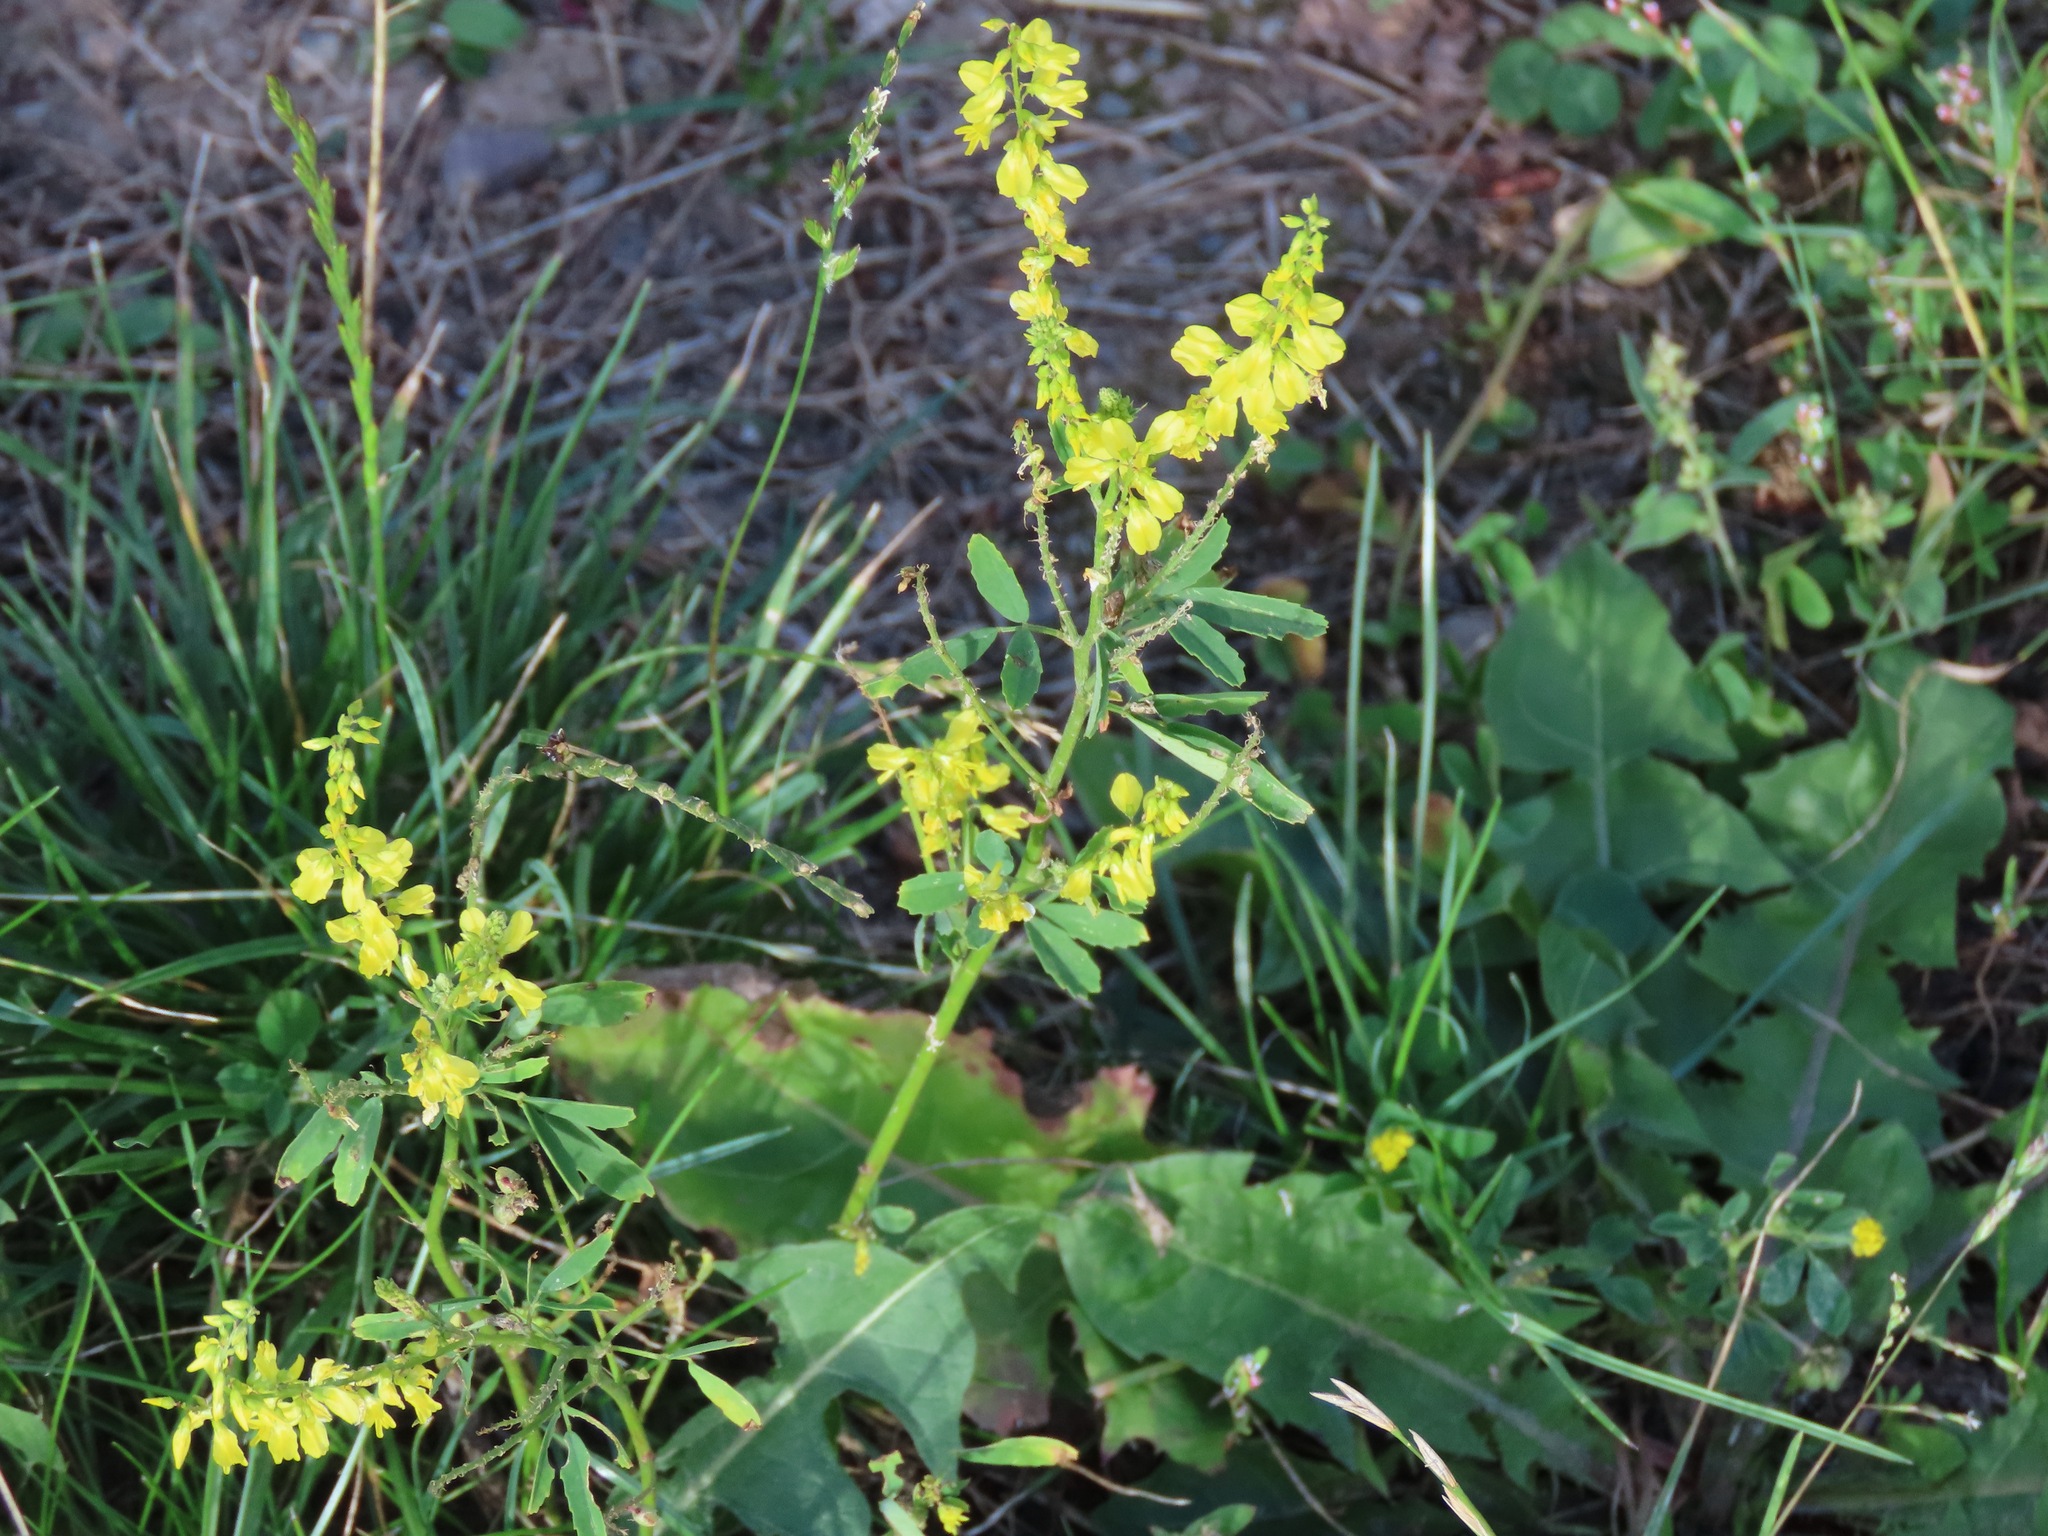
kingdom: Plantae
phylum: Tracheophyta
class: Magnoliopsida
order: Fabales
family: Fabaceae
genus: Melilotus
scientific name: Melilotus officinalis
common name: Sweetclover
